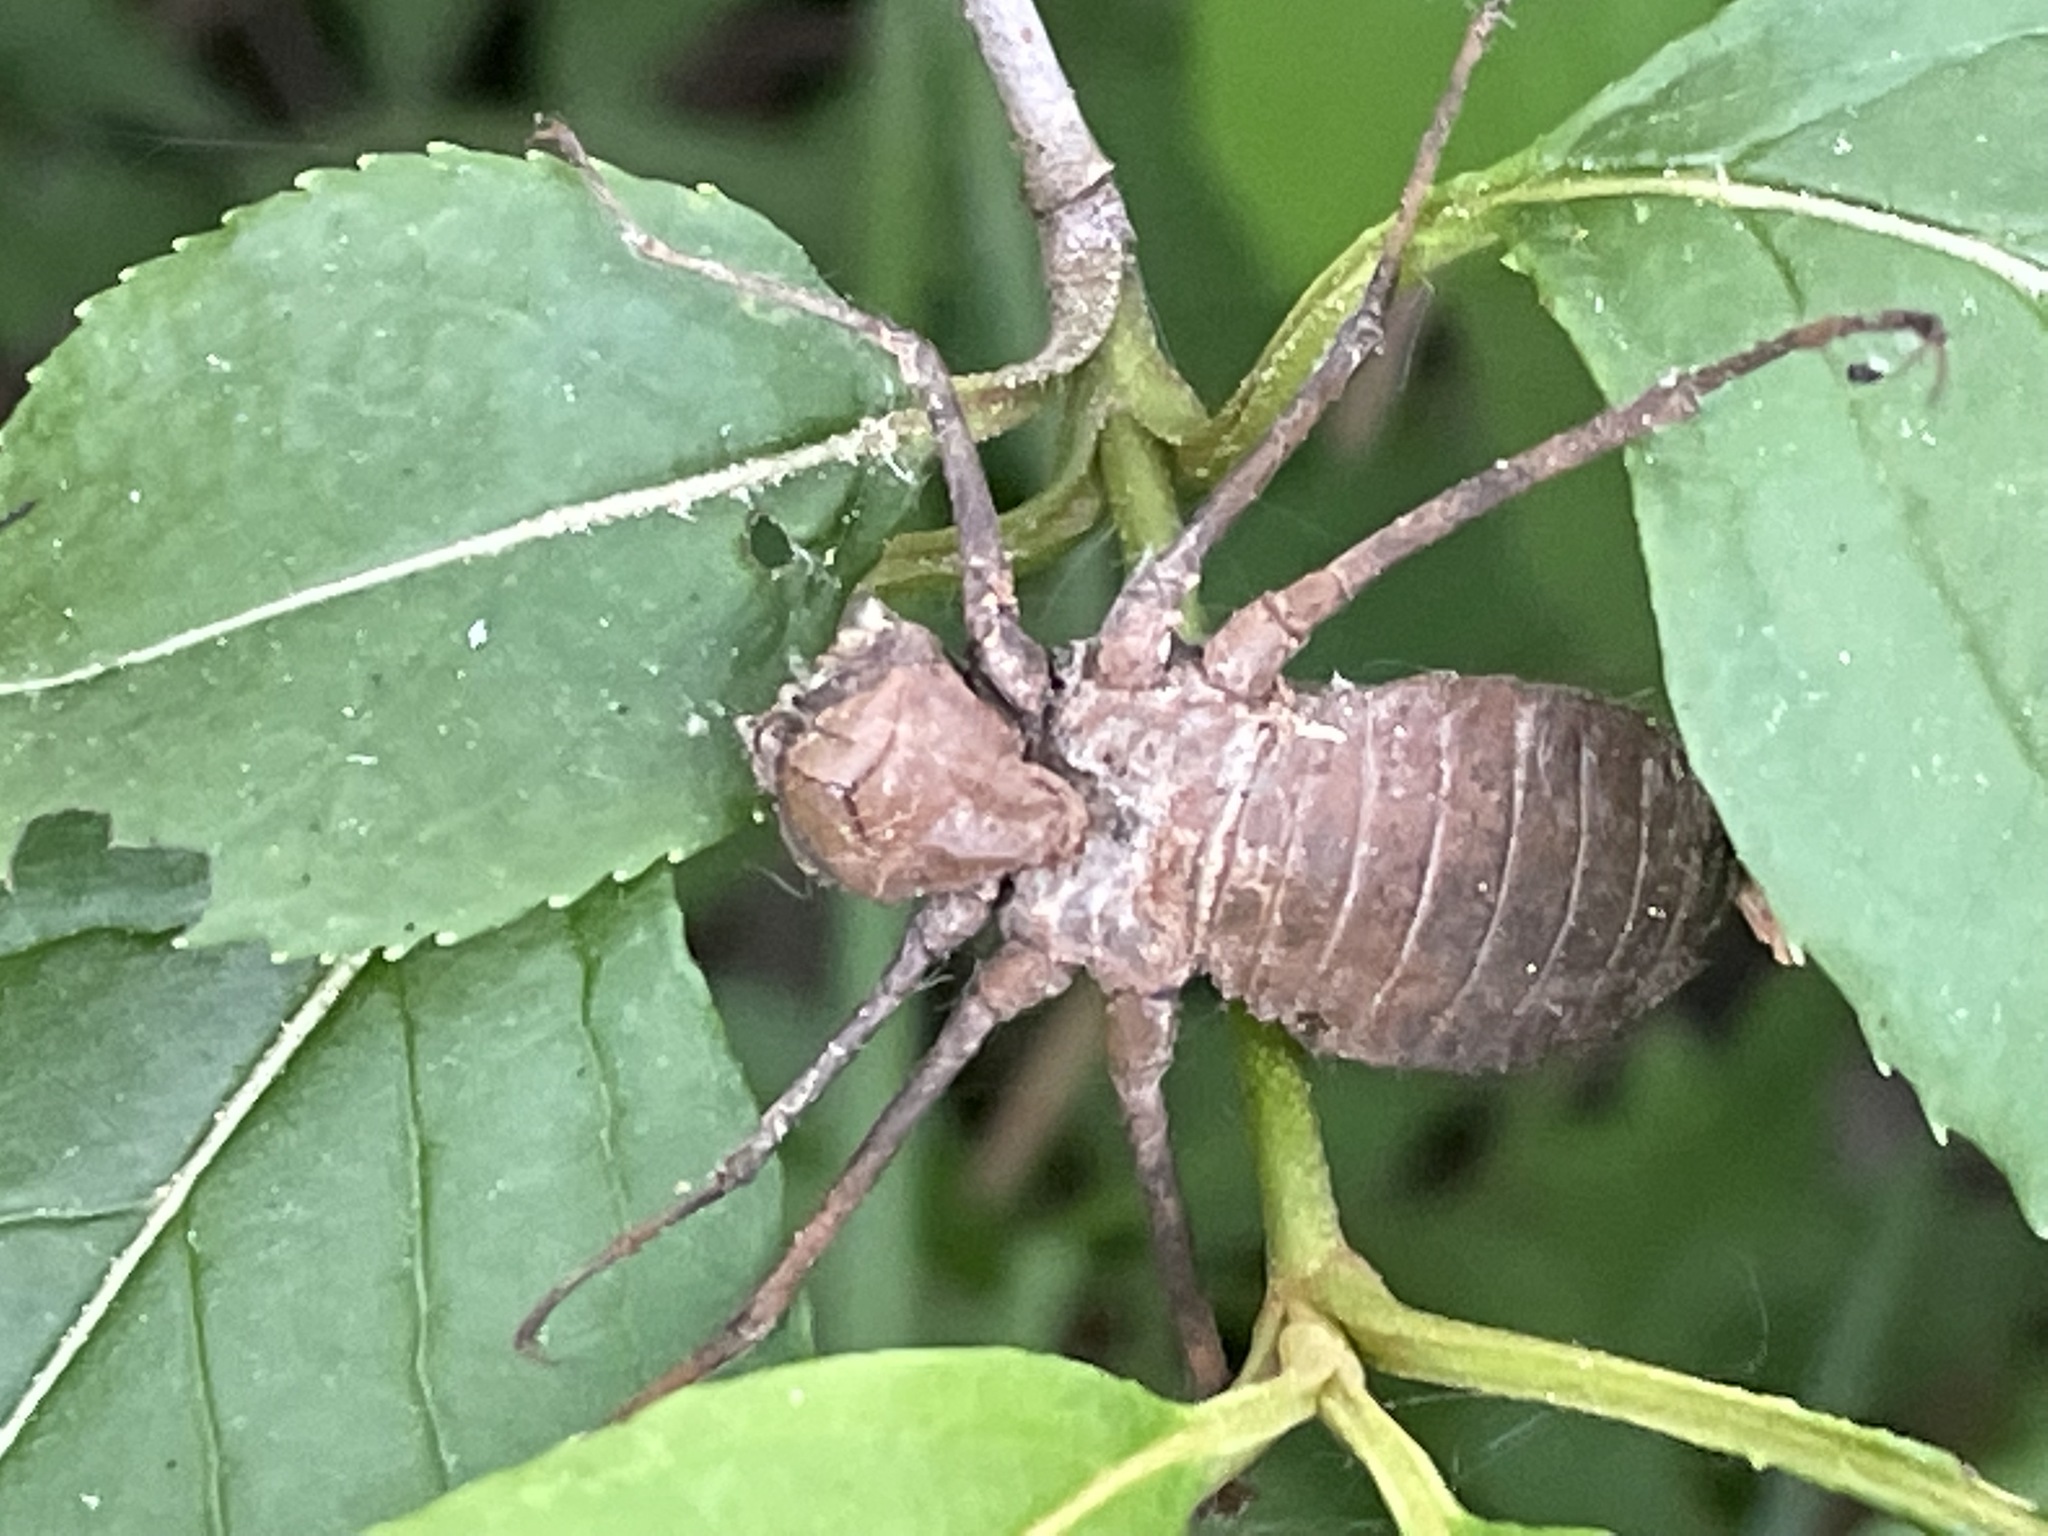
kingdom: Animalia
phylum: Arthropoda
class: Insecta
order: Odonata
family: Macromiidae
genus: Macromia
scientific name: Macromia illinoiensis
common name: Swift river cruiser
